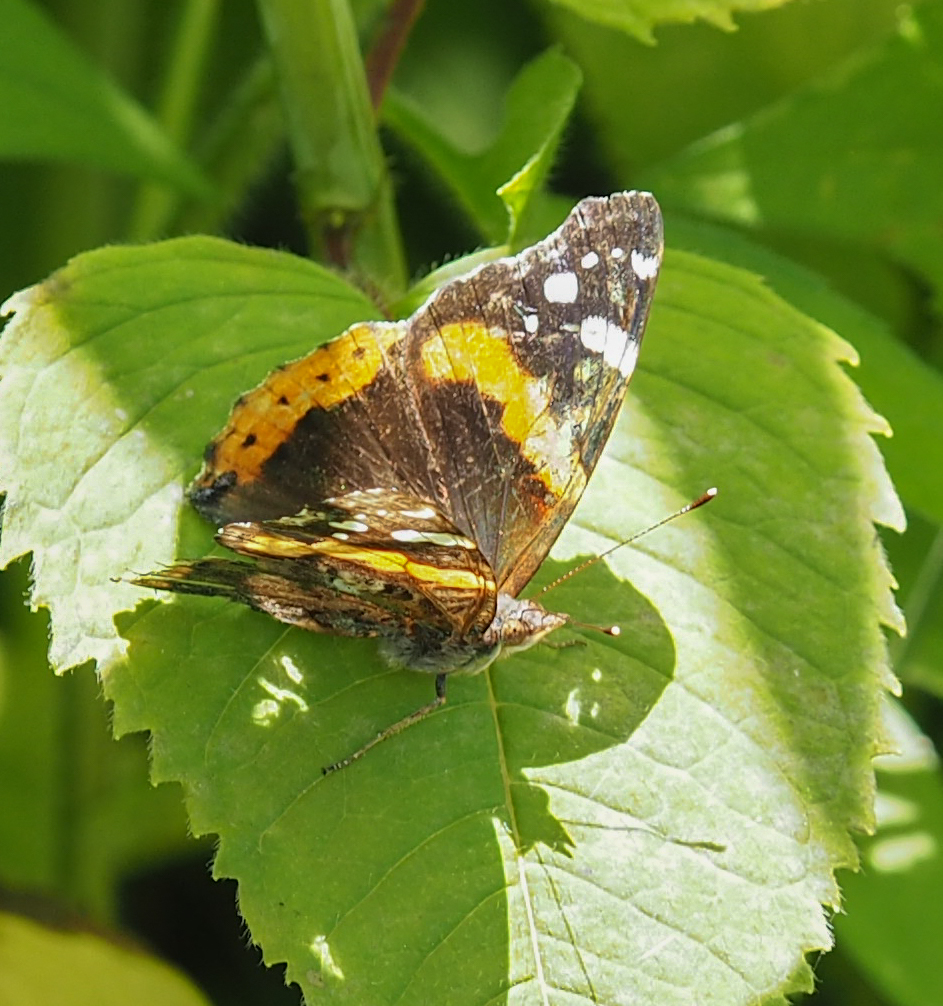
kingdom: Animalia
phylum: Arthropoda
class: Insecta
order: Lepidoptera
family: Nymphalidae
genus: Vanessa
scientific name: Vanessa atalanta
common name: Red admiral
